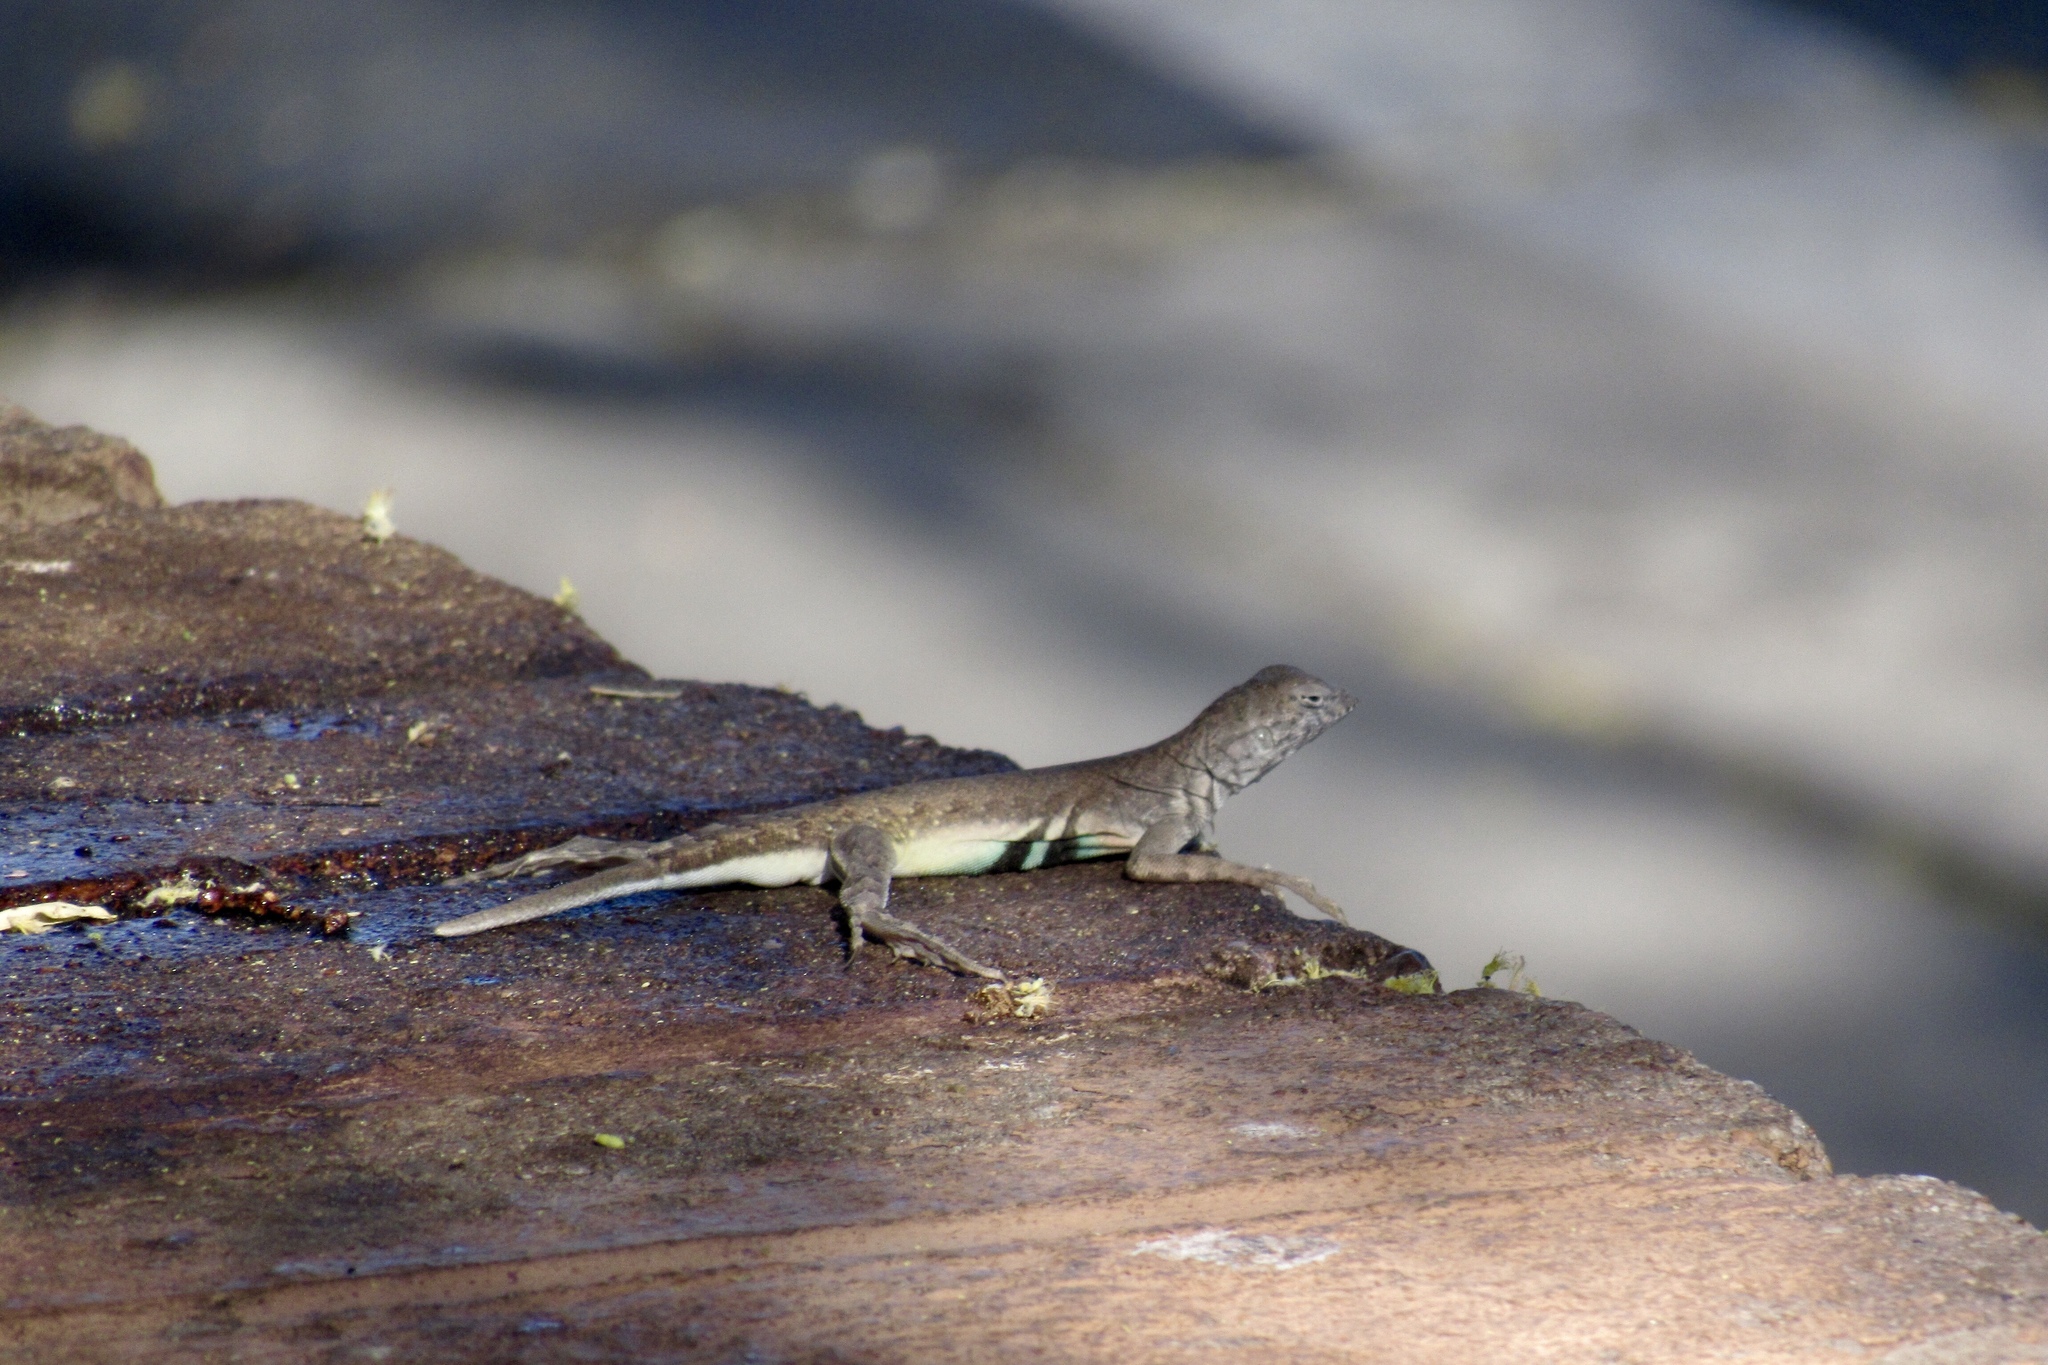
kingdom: Animalia
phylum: Chordata
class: Squamata
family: Phrynosomatidae
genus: Callisaurus
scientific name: Callisaurus draconoides
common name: Zebra-tailed lizard
